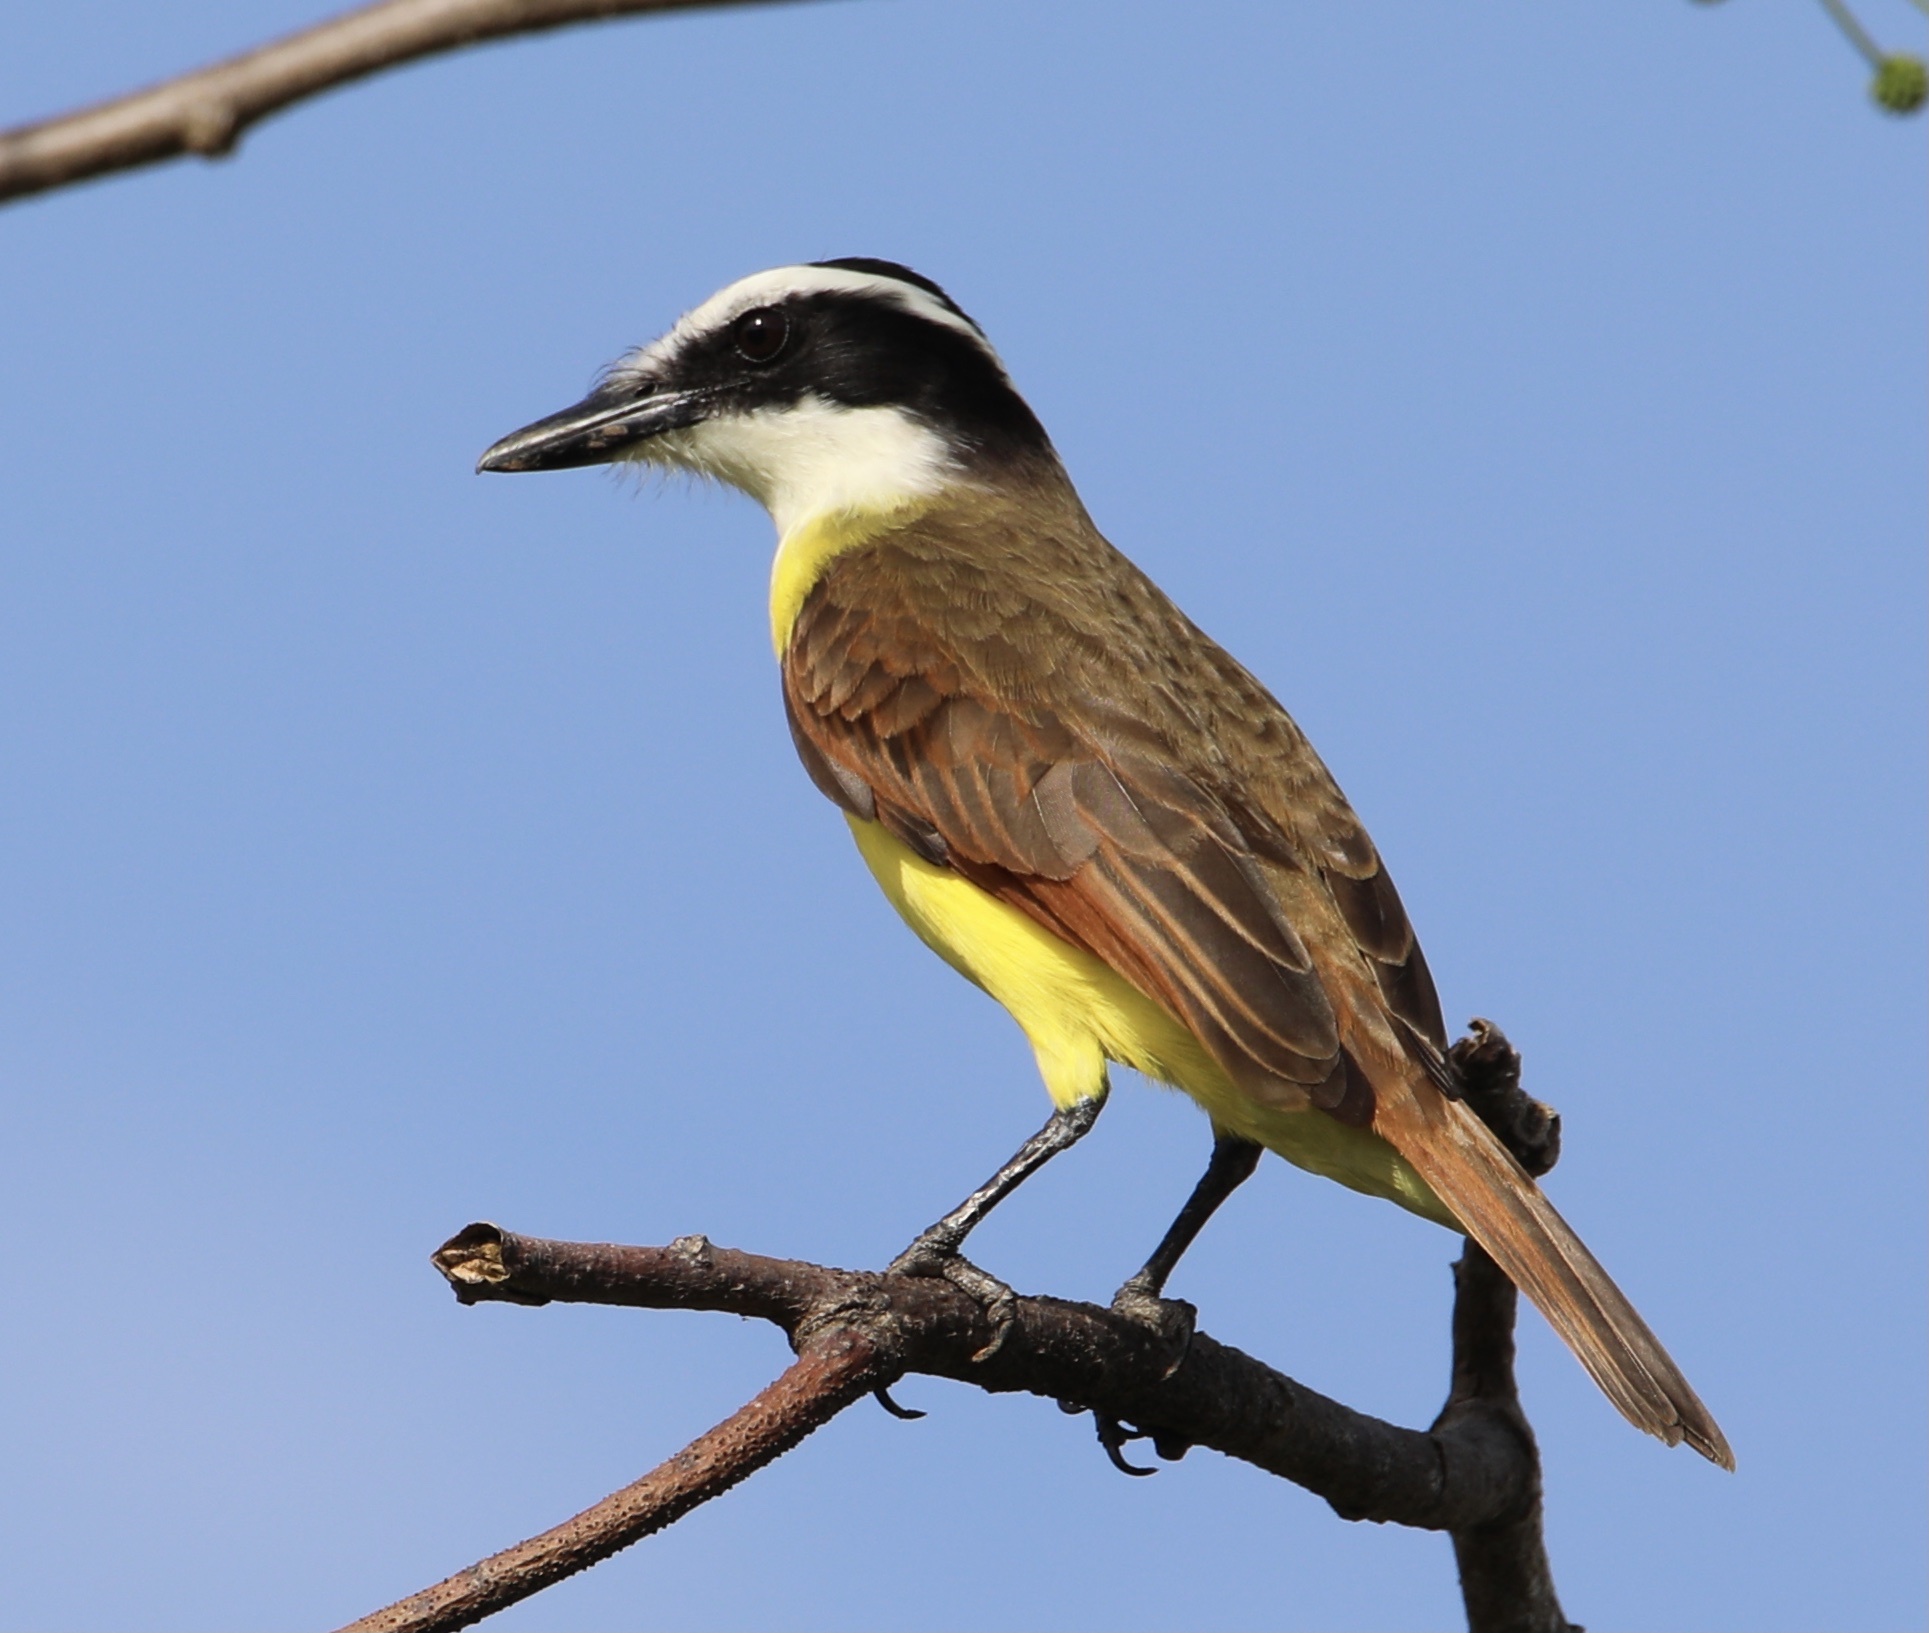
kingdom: Animalia
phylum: Chordata
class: Aves
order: Passeriformes
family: Tyrannidae
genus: Pitangus
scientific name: Pitangus sulphuratus
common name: Great kiskadee
